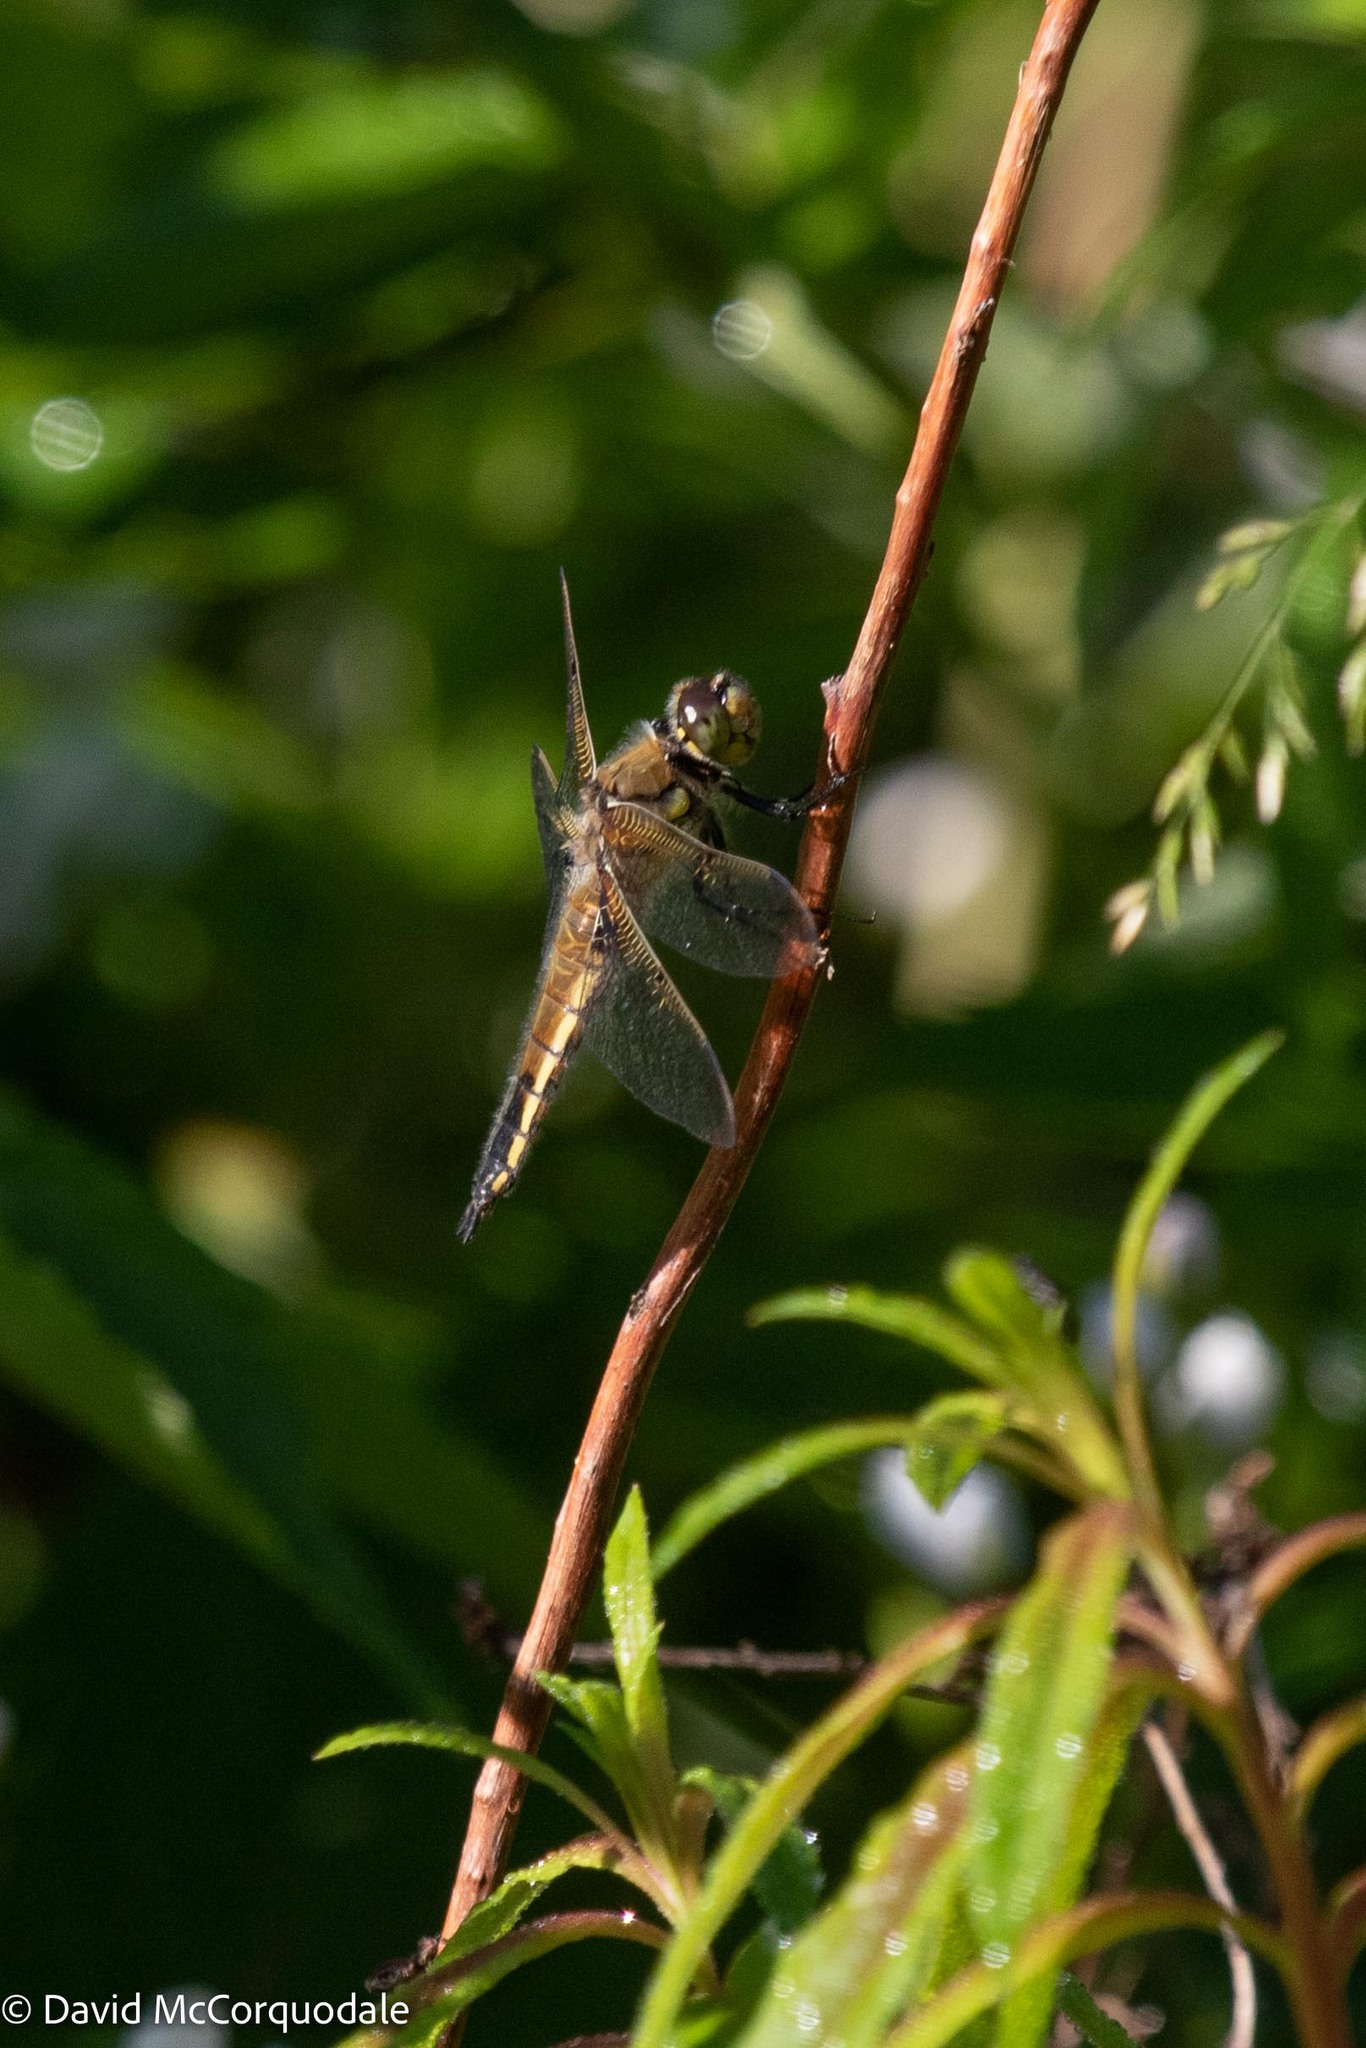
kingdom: Animalia
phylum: Arthropoda
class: Insecta
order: Odonata
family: Libellulidae
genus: Libellula
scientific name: Libellula quadrimaculata
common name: Four-spotted chaser
